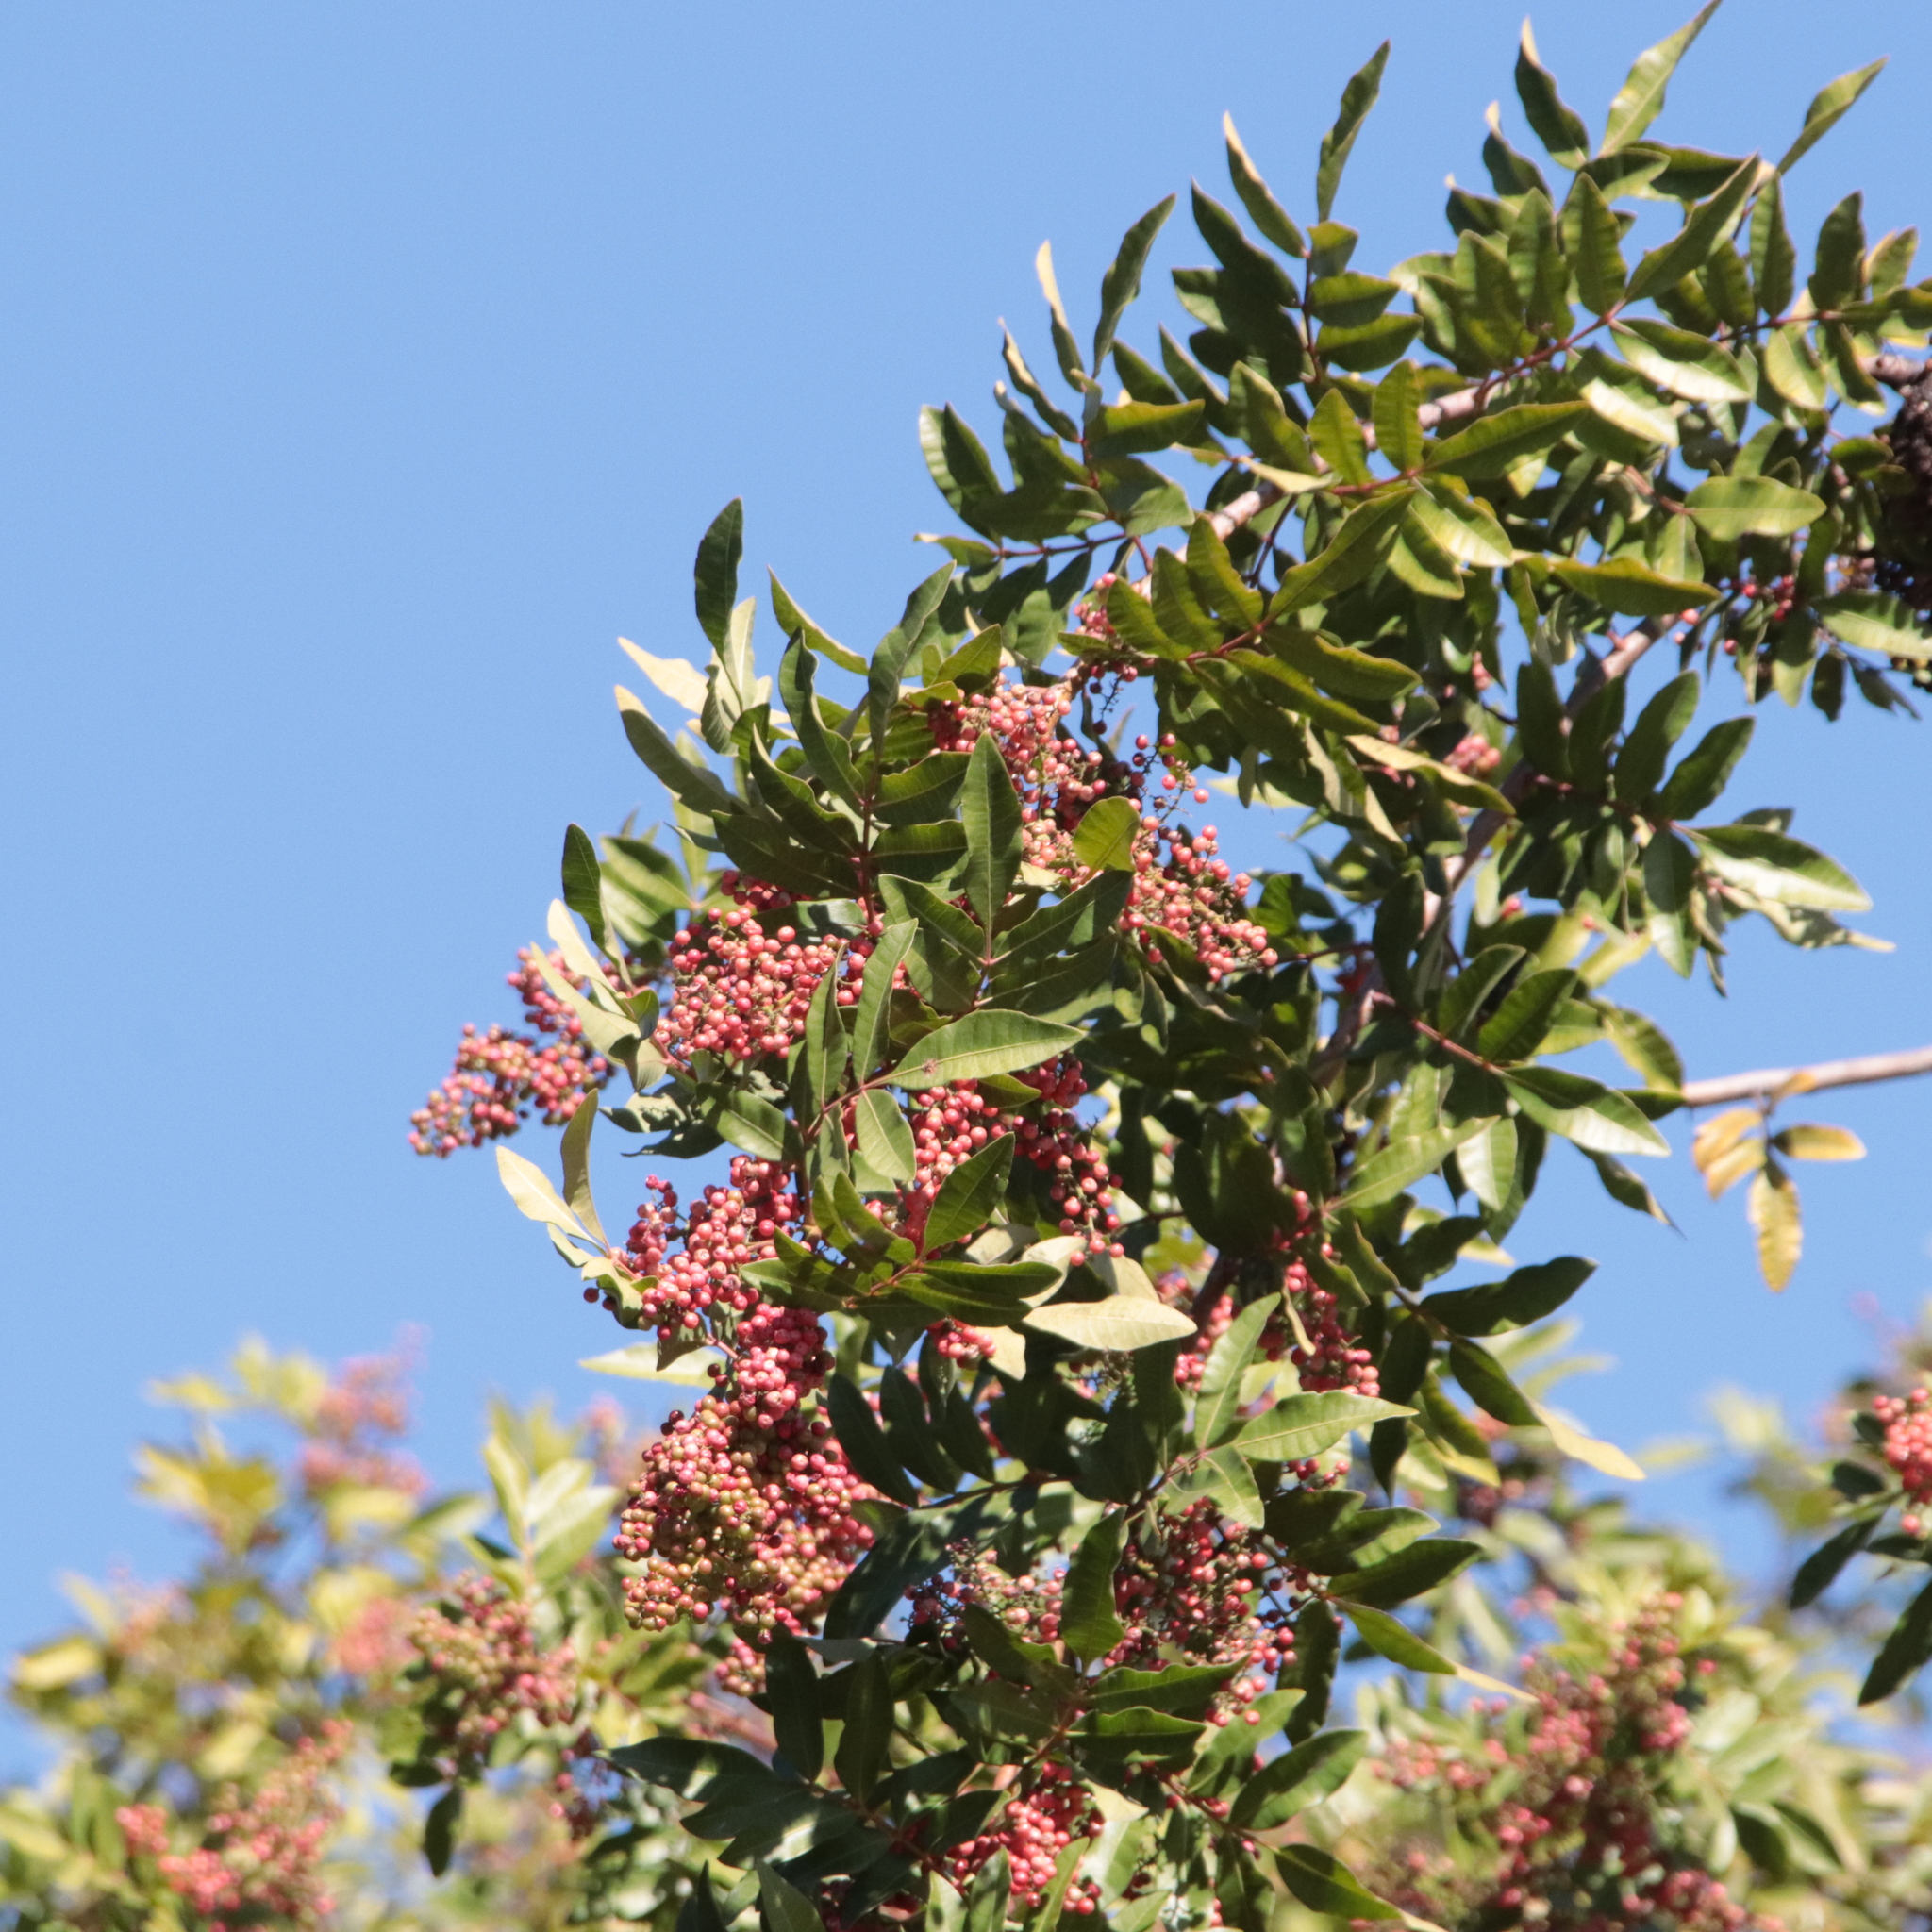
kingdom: Plantae
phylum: Tracheophyta
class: Magnoliopsida
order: Sapindales
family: Anacardiaceae
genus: Schinus
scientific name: Schinus terebinthifolia
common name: Brazilian peppertree
